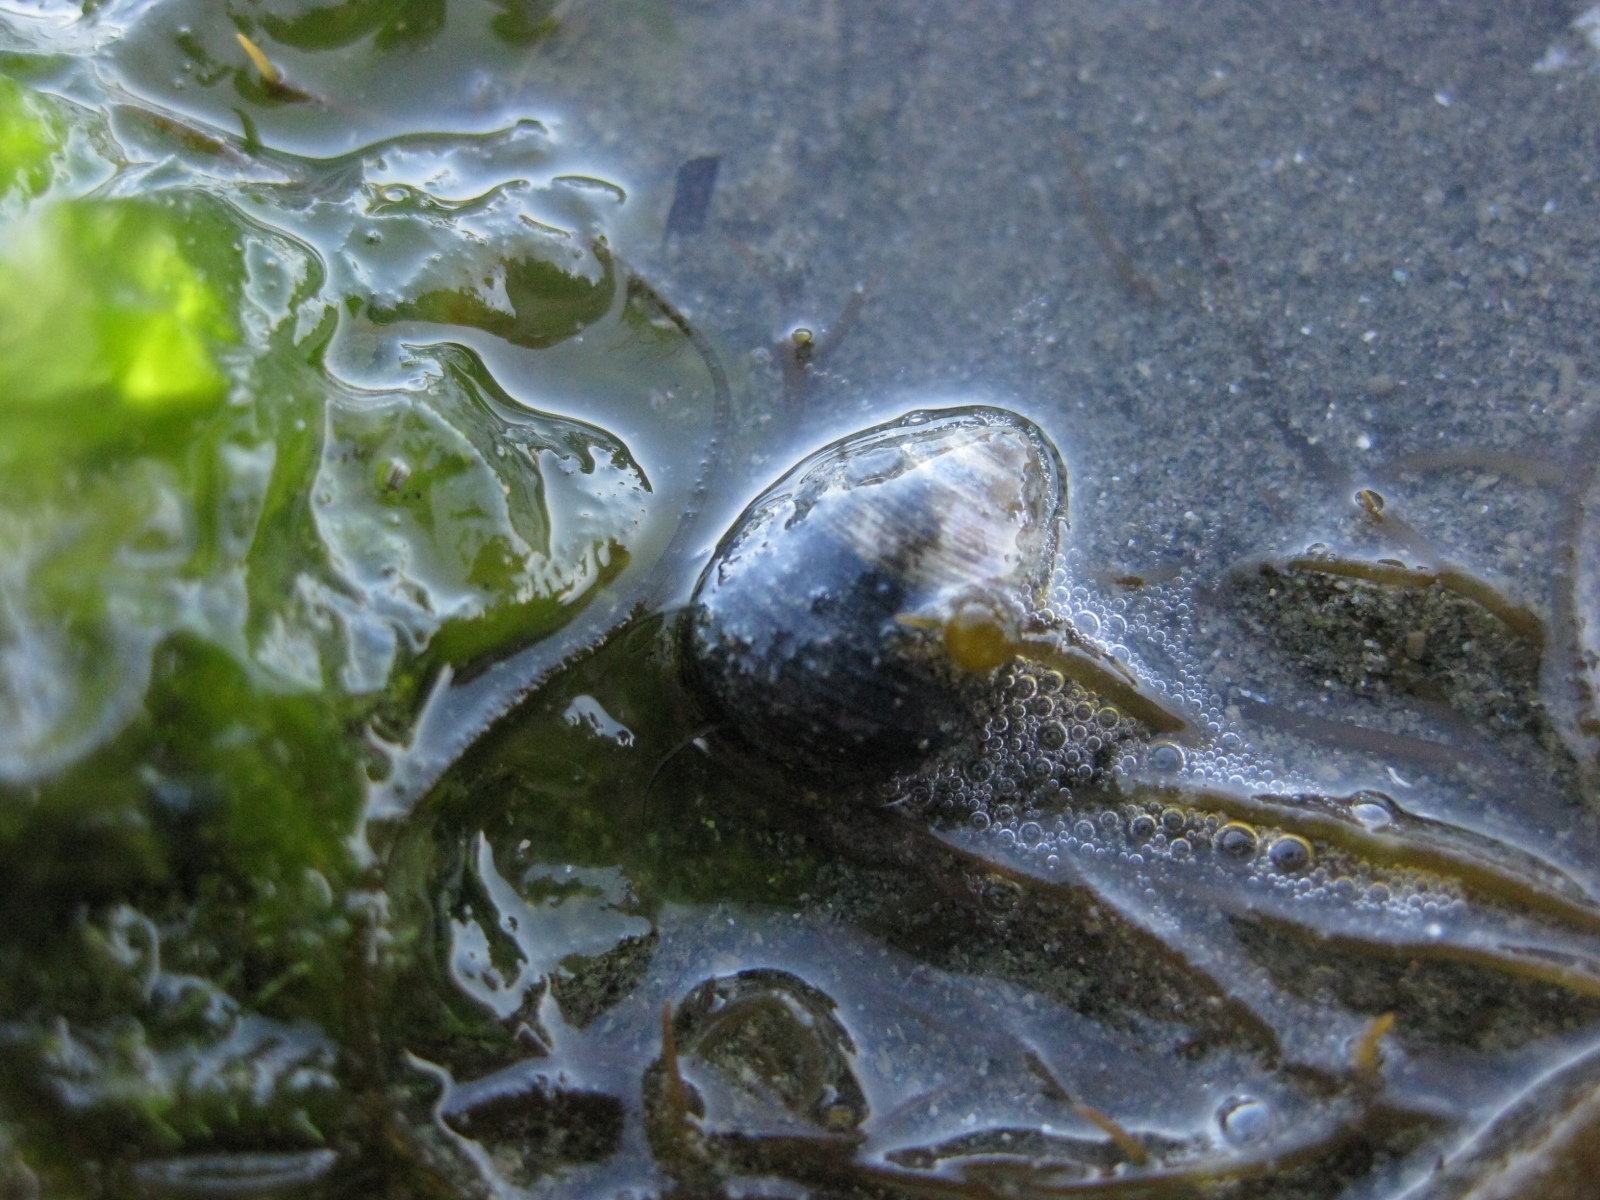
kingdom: Animalia
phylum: Mollusca
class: Gastropoda
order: Trochida
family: Trochidae
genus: Micrelenchus
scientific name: Micrelenchus huttonii
